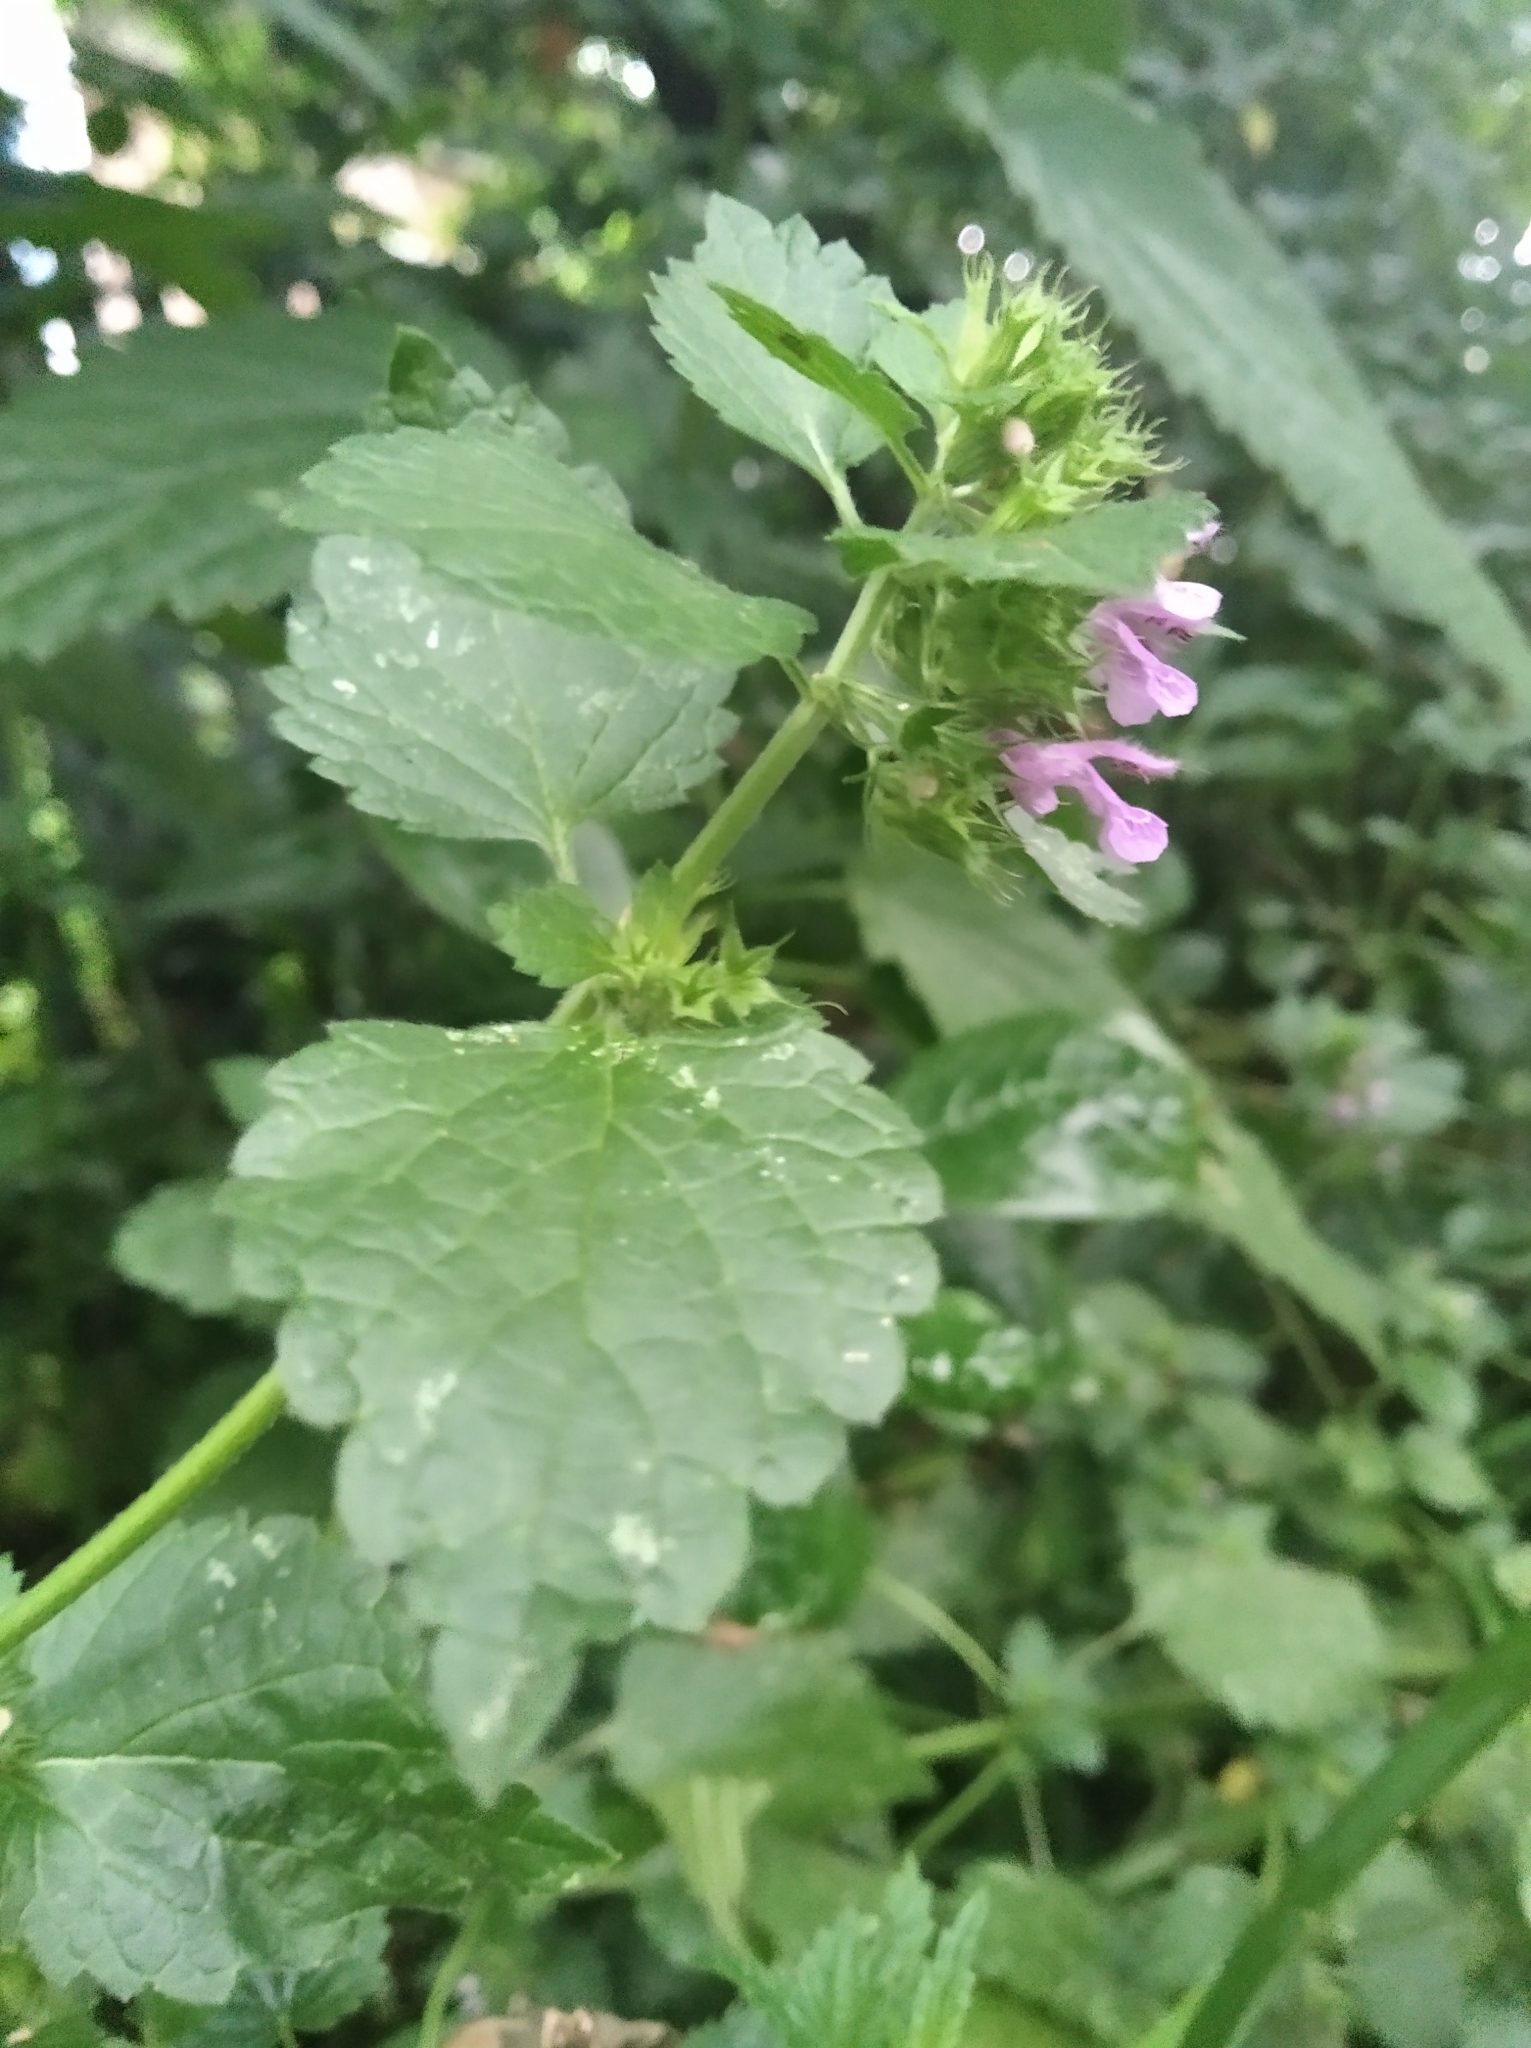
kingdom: Plantae
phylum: Tracheophyta
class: Magnoliopsida
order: Lamiales
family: Lamiaceae
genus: Ballota
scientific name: Ballota nigra
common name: Black horehound
